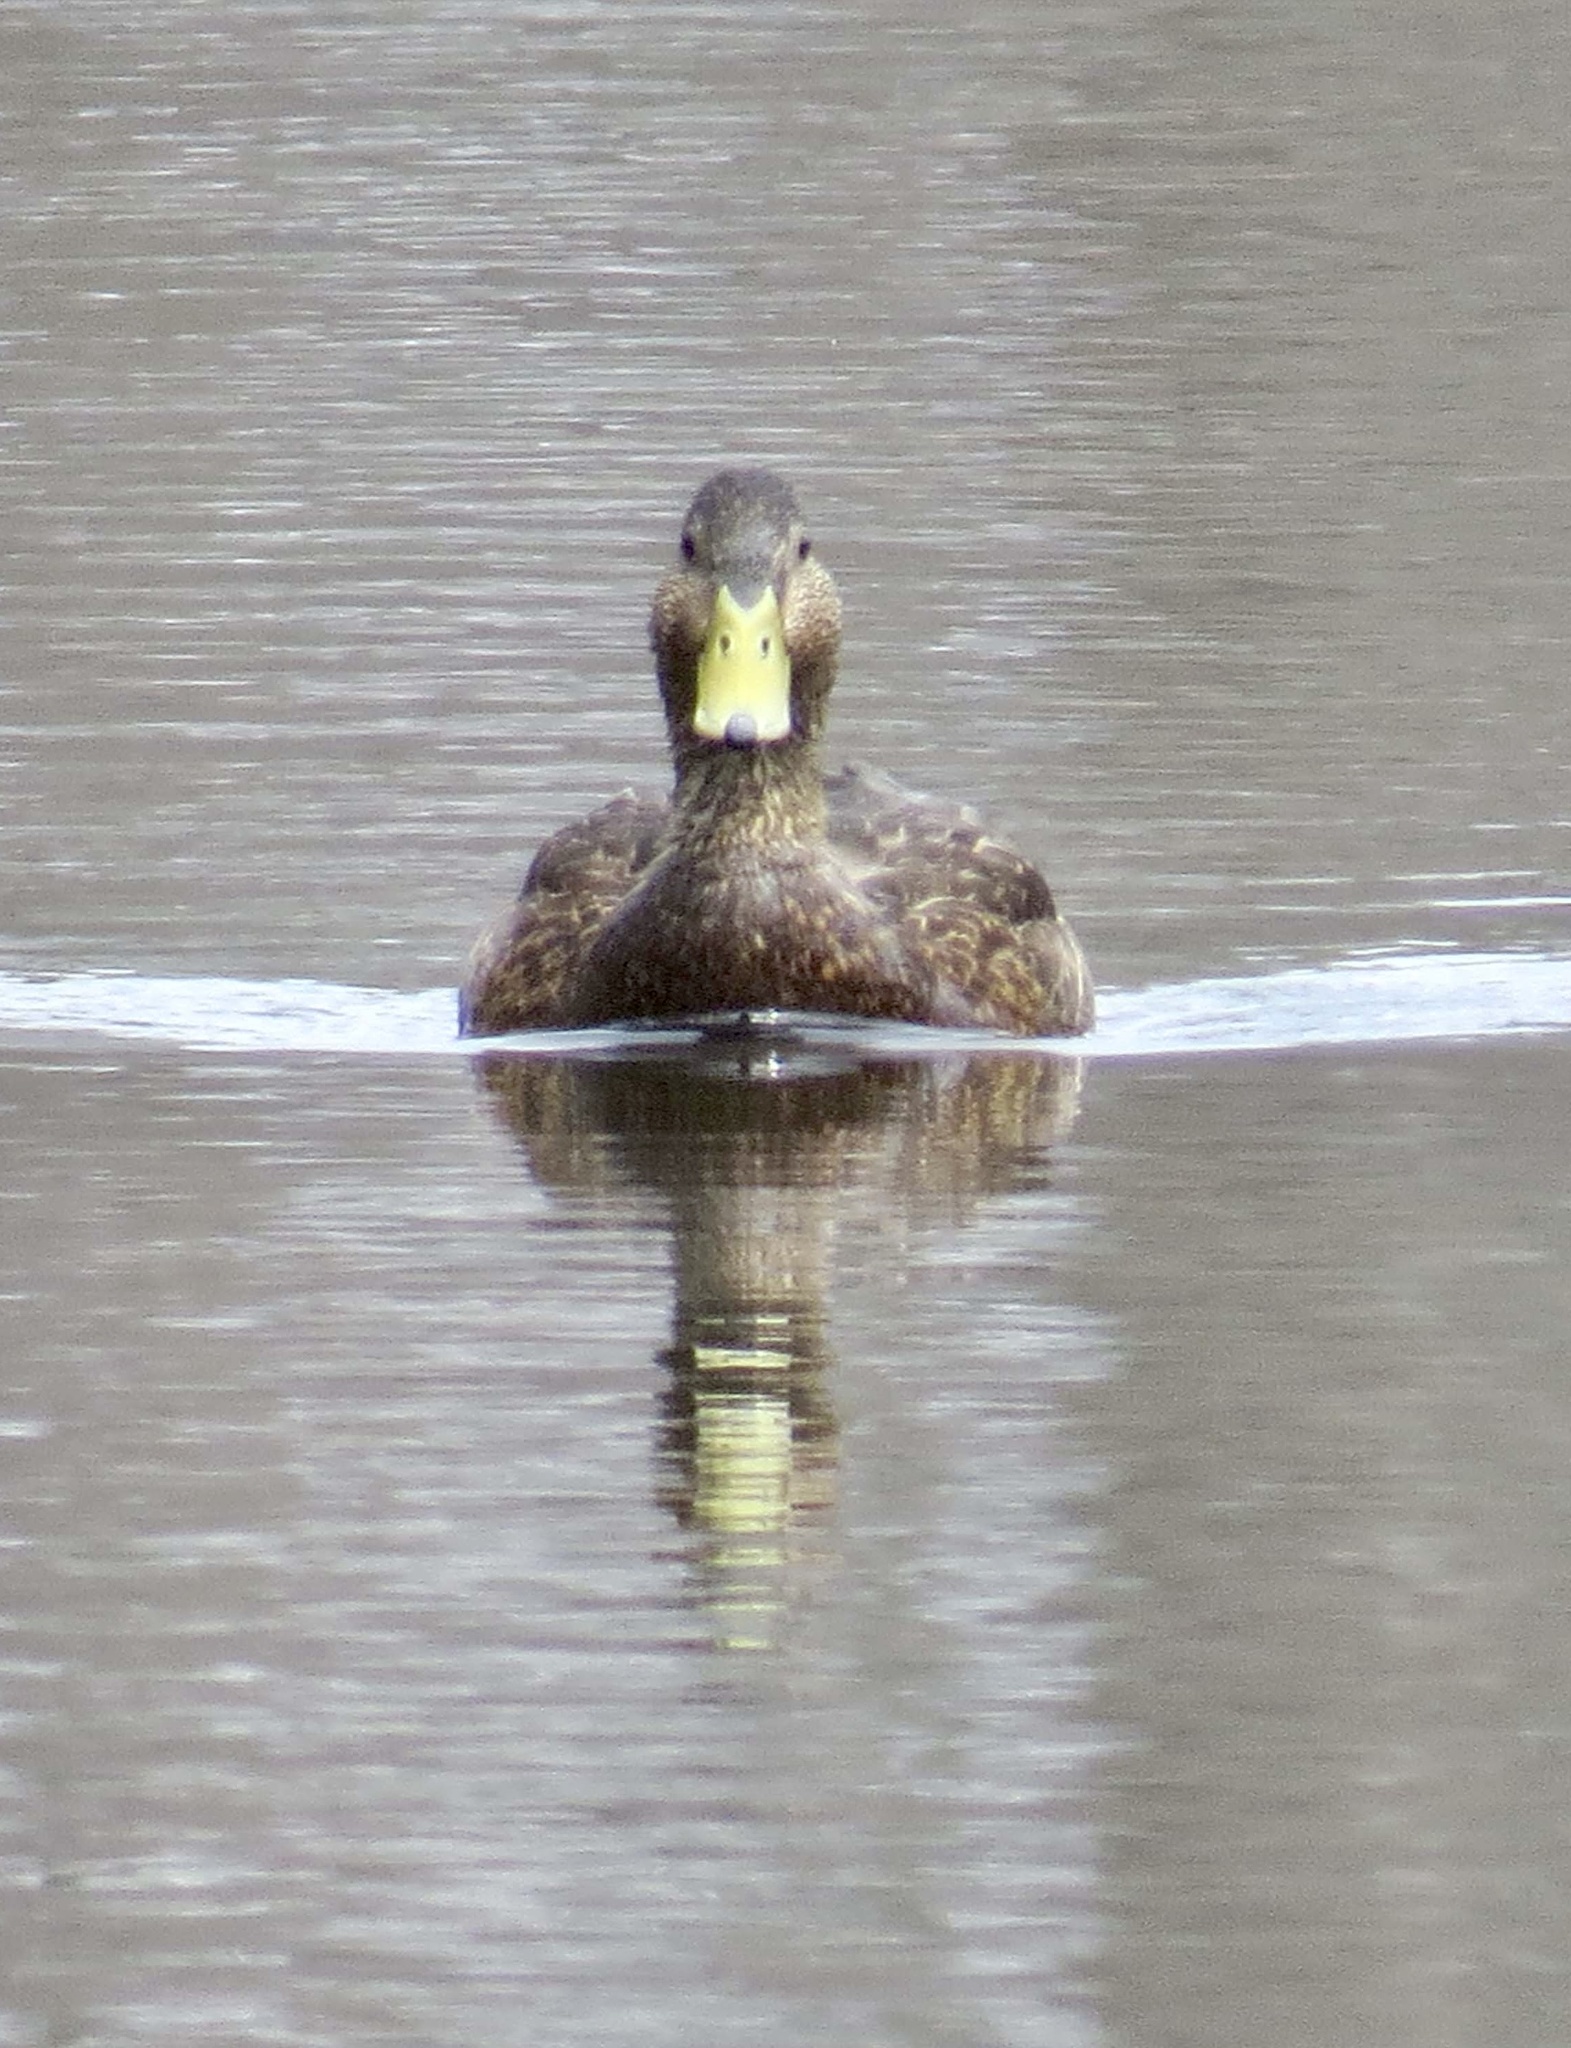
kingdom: Animalia
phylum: Chordata
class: Aves
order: Anseriformes
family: Anatidae
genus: Anas
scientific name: Anas rubripes
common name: American black duck
